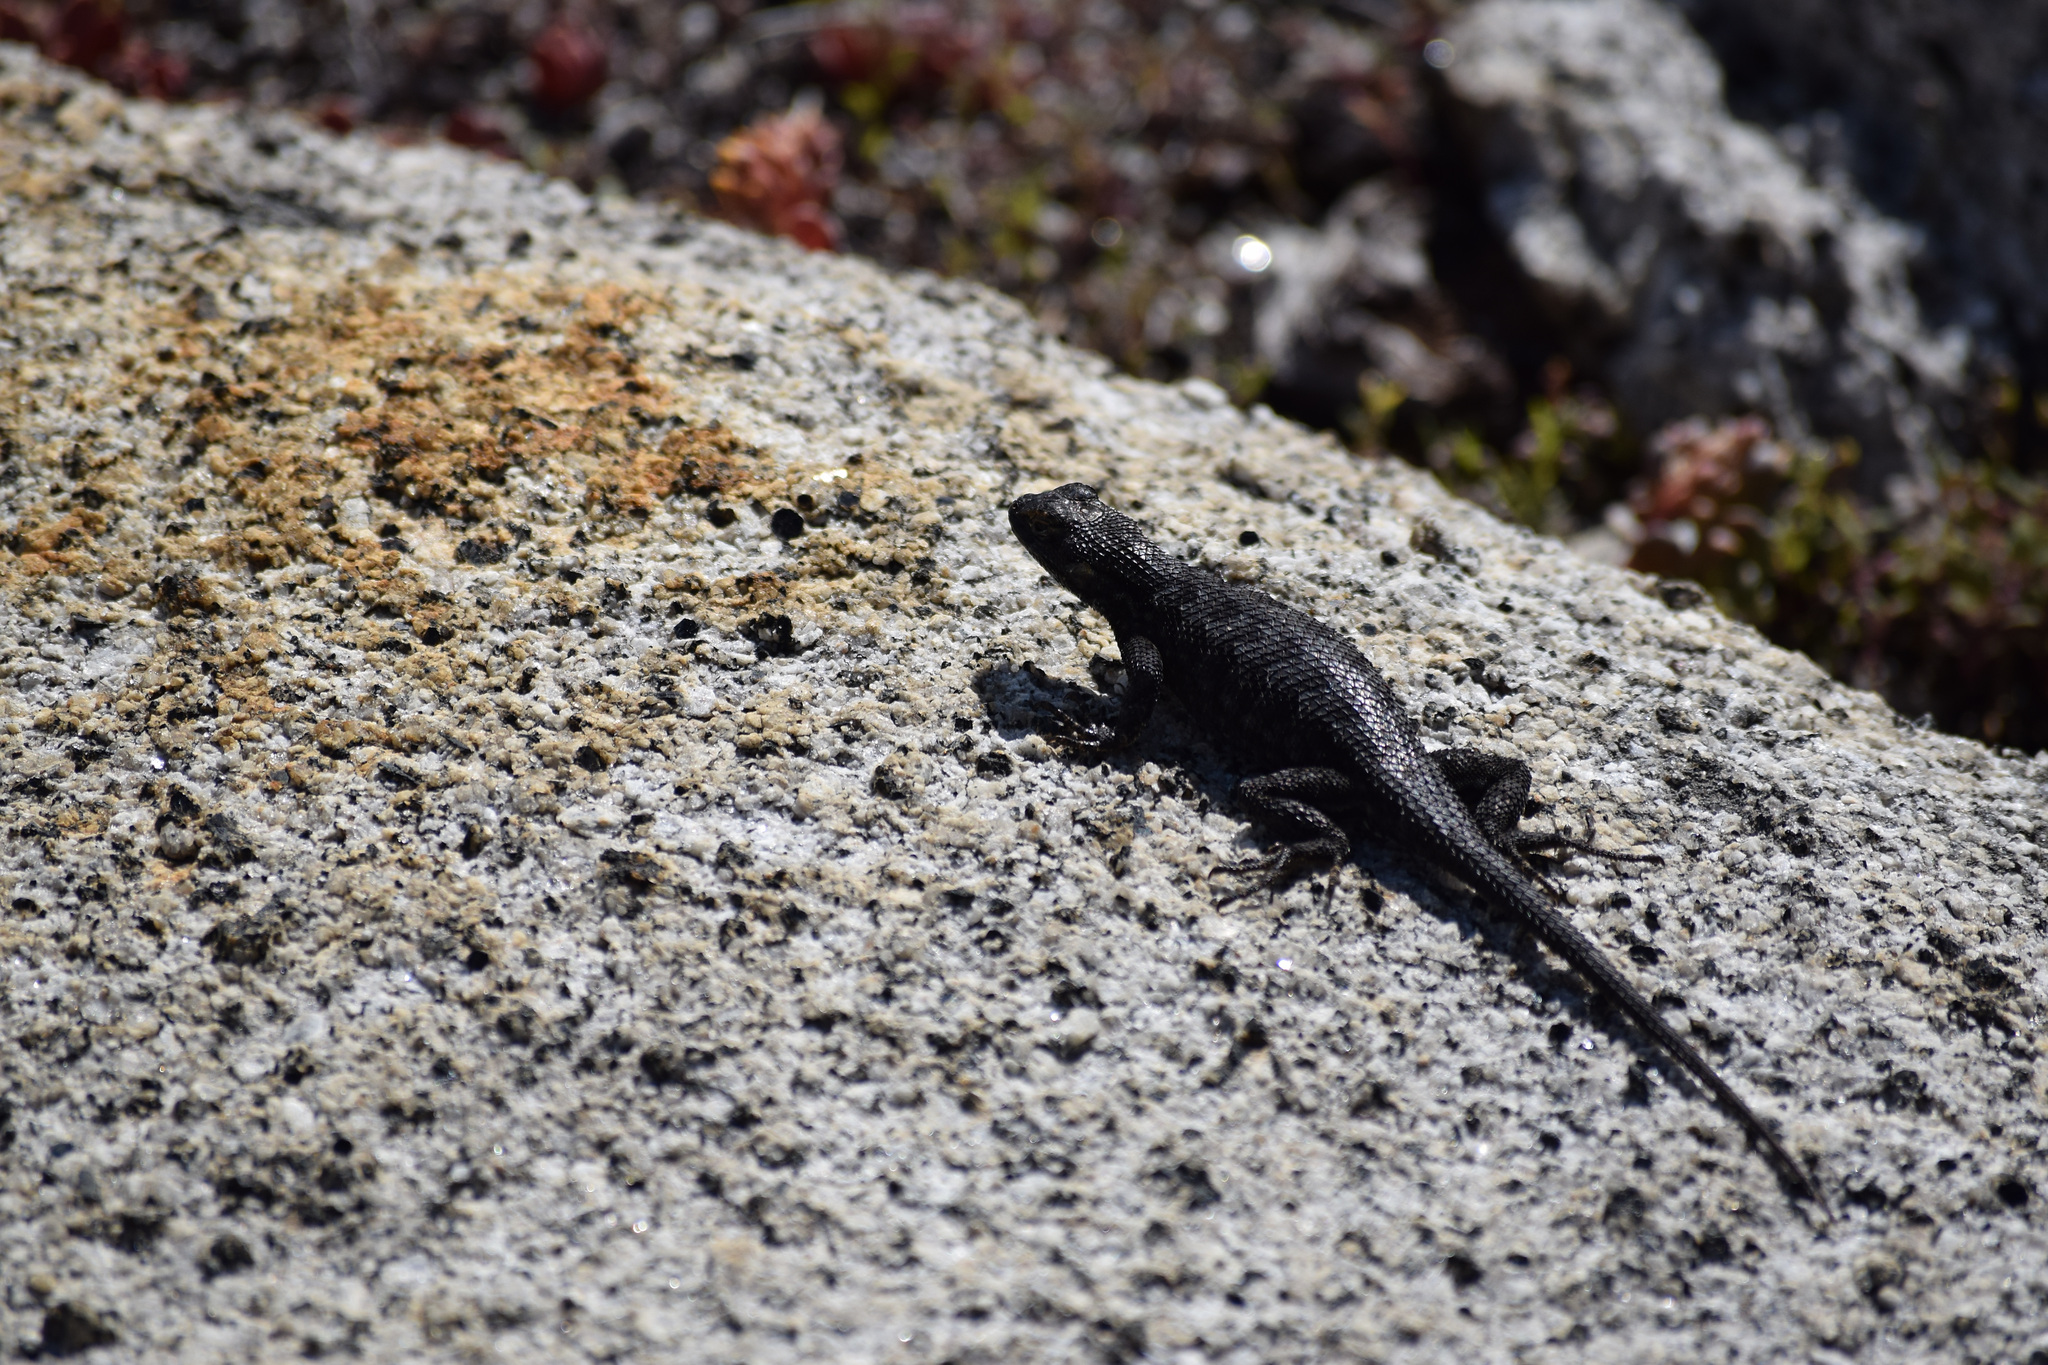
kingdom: Animalia
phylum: Chordata
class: Squamata
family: Phrynosomatidae
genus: Sceloporus
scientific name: Sceloporus occidentalis
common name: Western fence lizard
